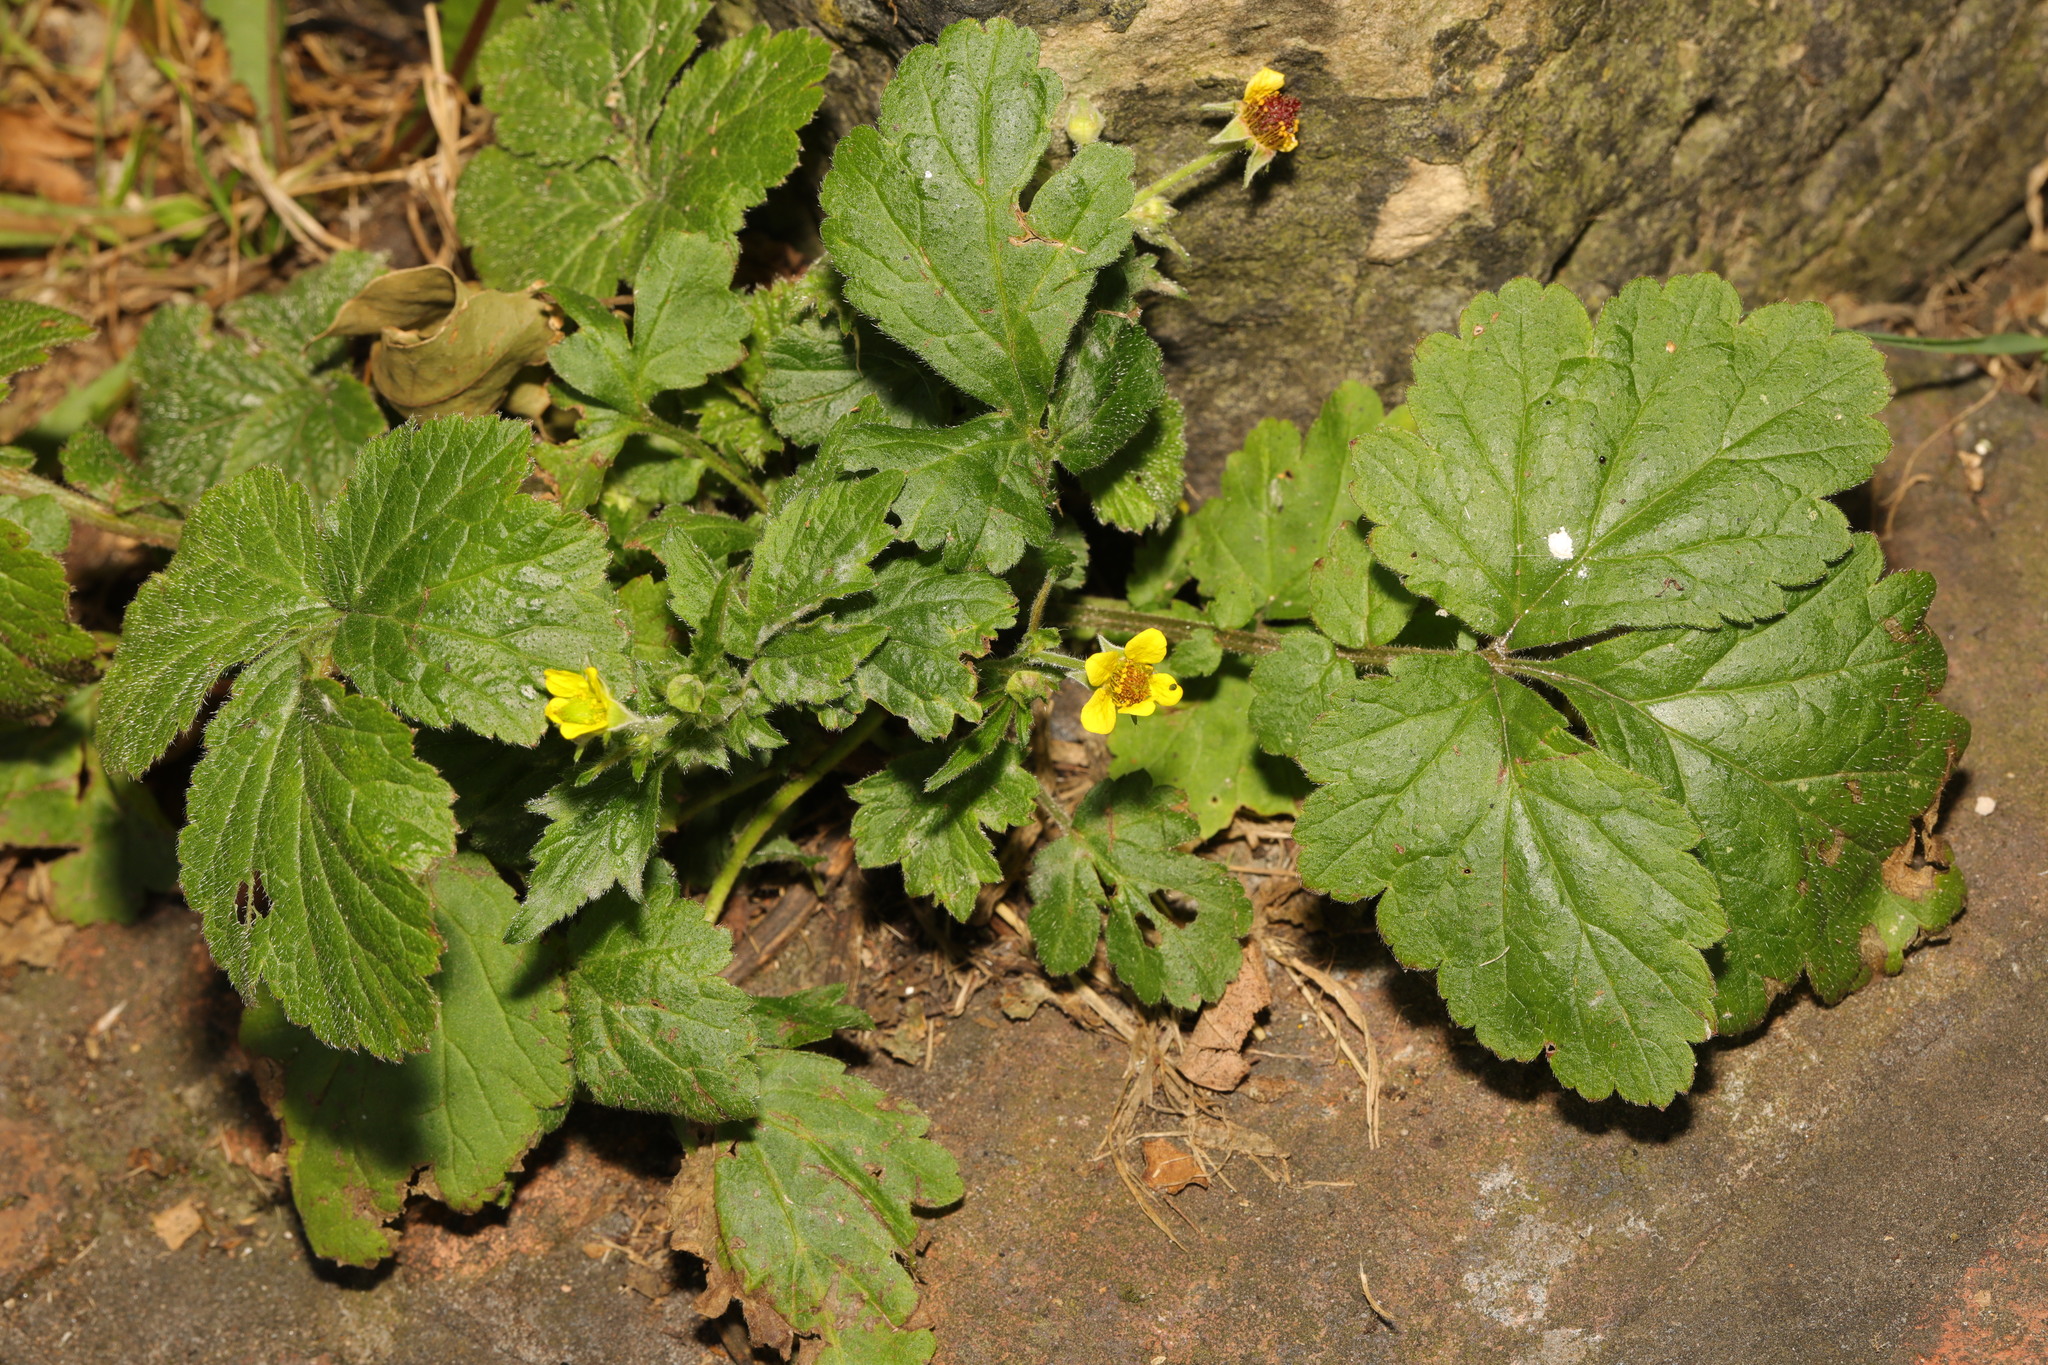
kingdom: Plantae
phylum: Tracheophyta
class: Magnoliopsida
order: Rosales
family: Rosaceae
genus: Geum
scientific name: Geum urbanum
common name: Wood avens
